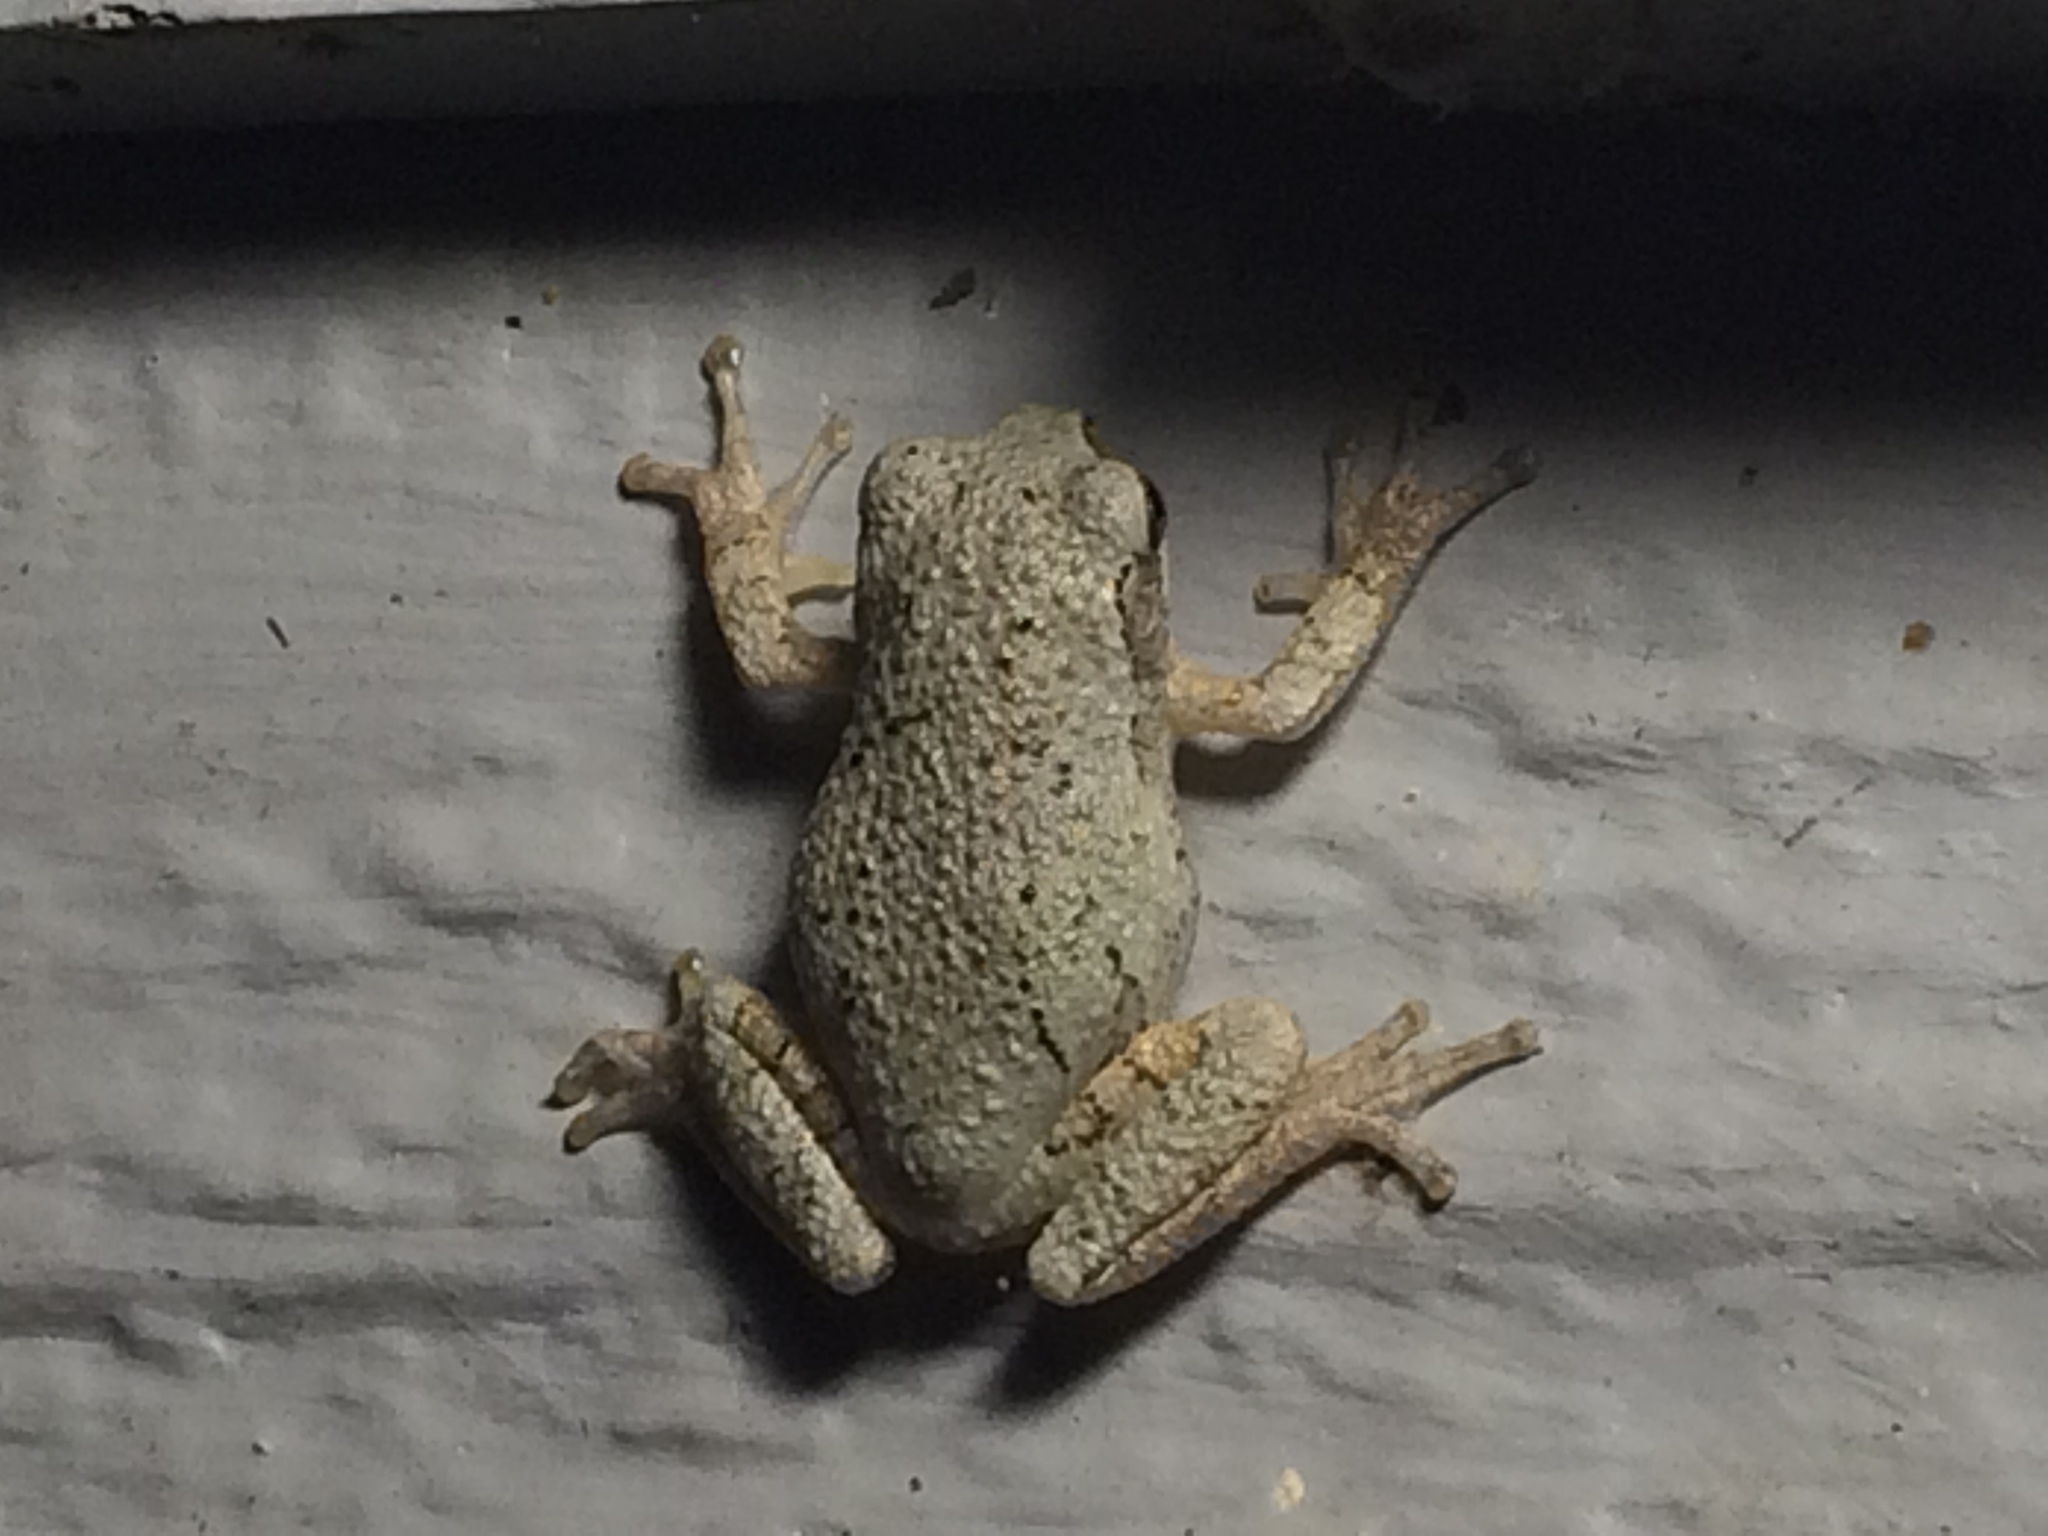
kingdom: Animalia
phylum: Chordata
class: Amphibia
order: Anura
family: Hylidae
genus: Dryophytes
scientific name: Dryophytes versicolor
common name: Gray treefrog
